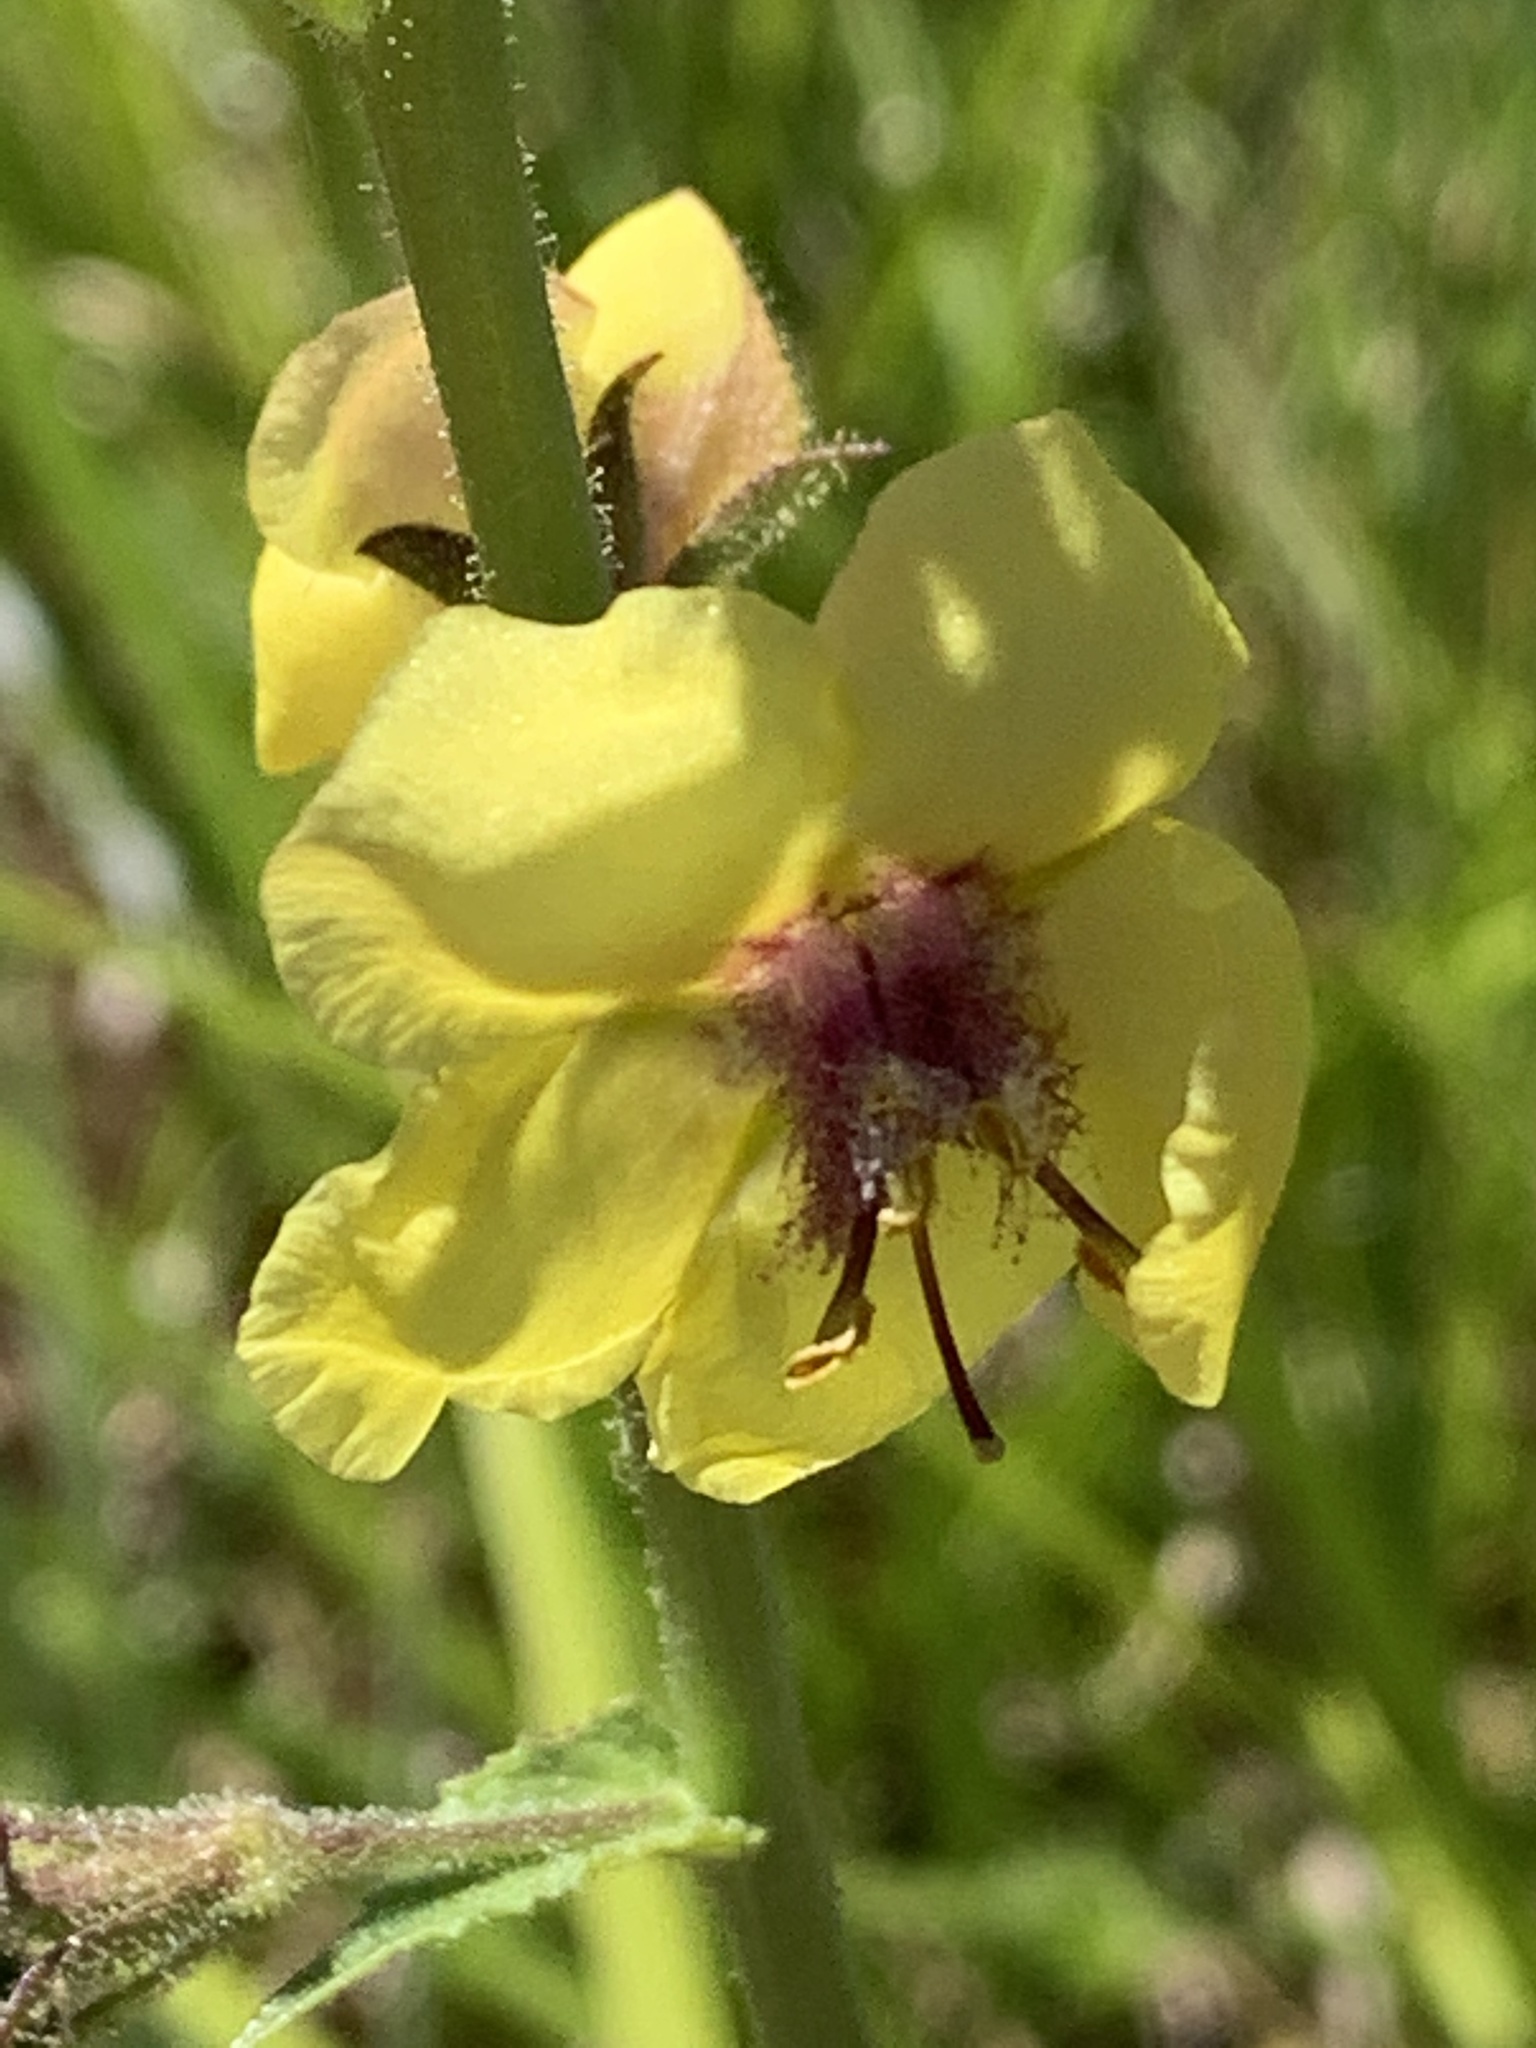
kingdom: Plantae
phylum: Tracheophyta
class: Magnoliopsida
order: Lamiales
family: Scrophulariaceae
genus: Verbascum
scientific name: Verbascum blattaria
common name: Moth mullein
